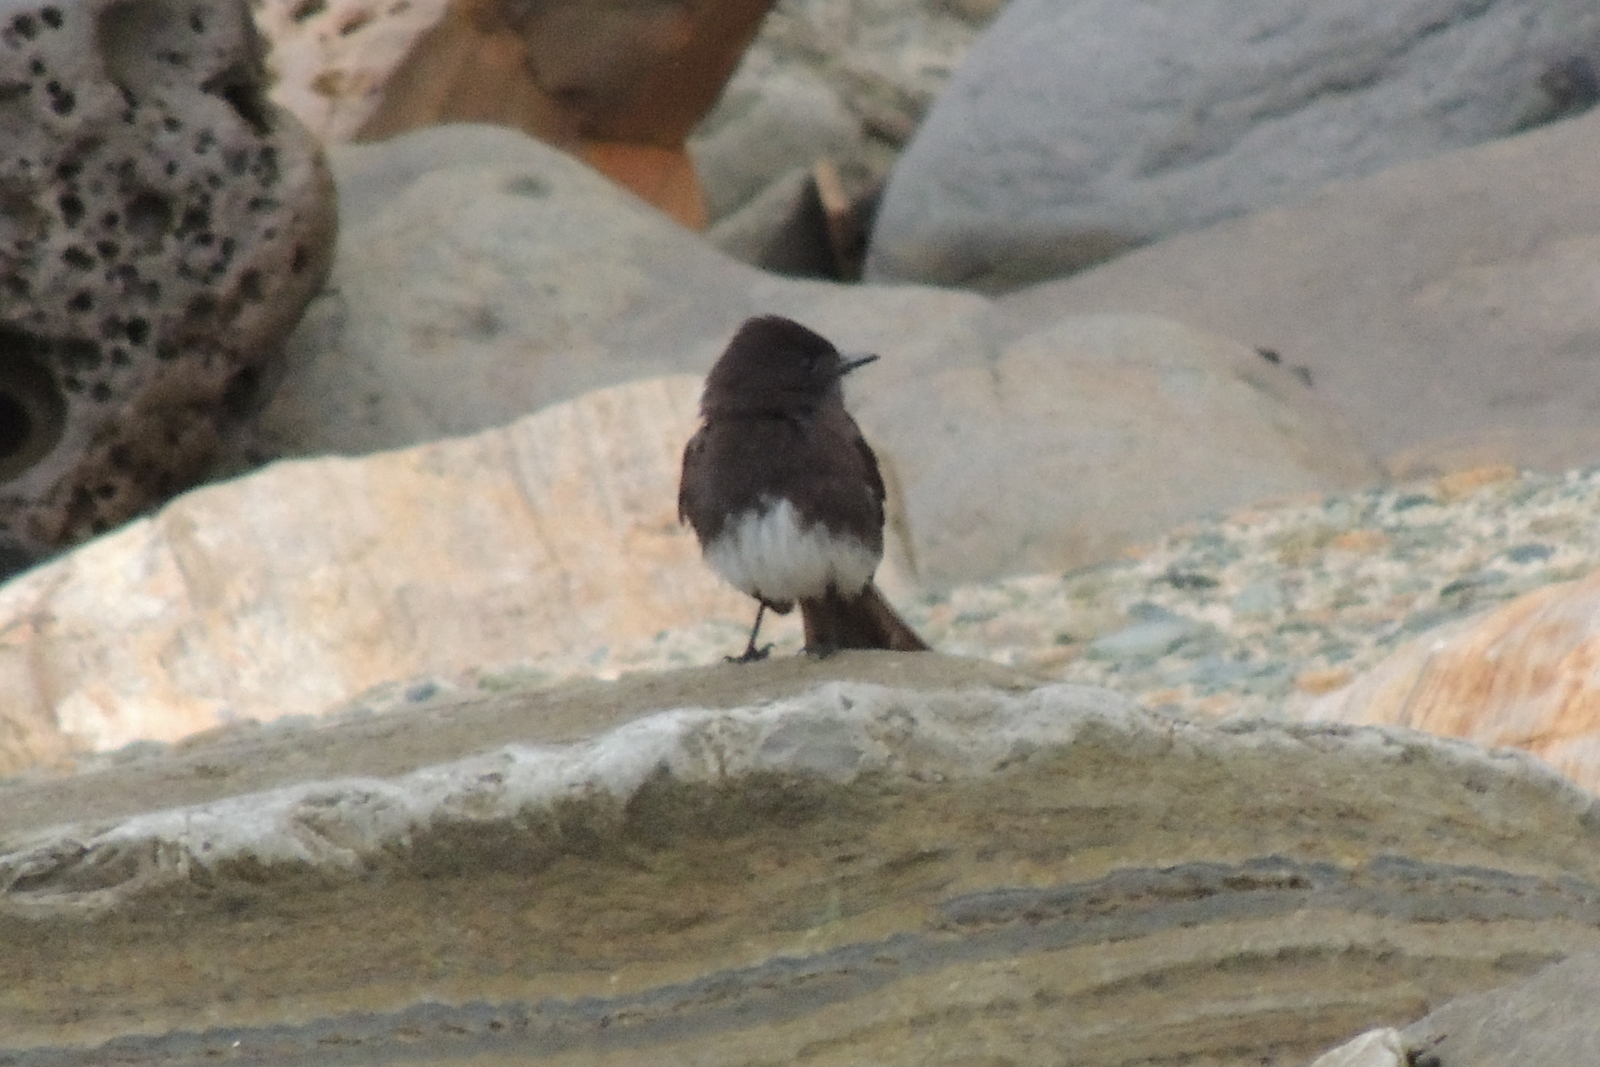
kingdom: Animalia
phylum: Chordata
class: Aves
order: Passeriformes
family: Tyrannidae
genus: Sayornis
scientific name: Sayornis nigricans
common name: Black phoebe
